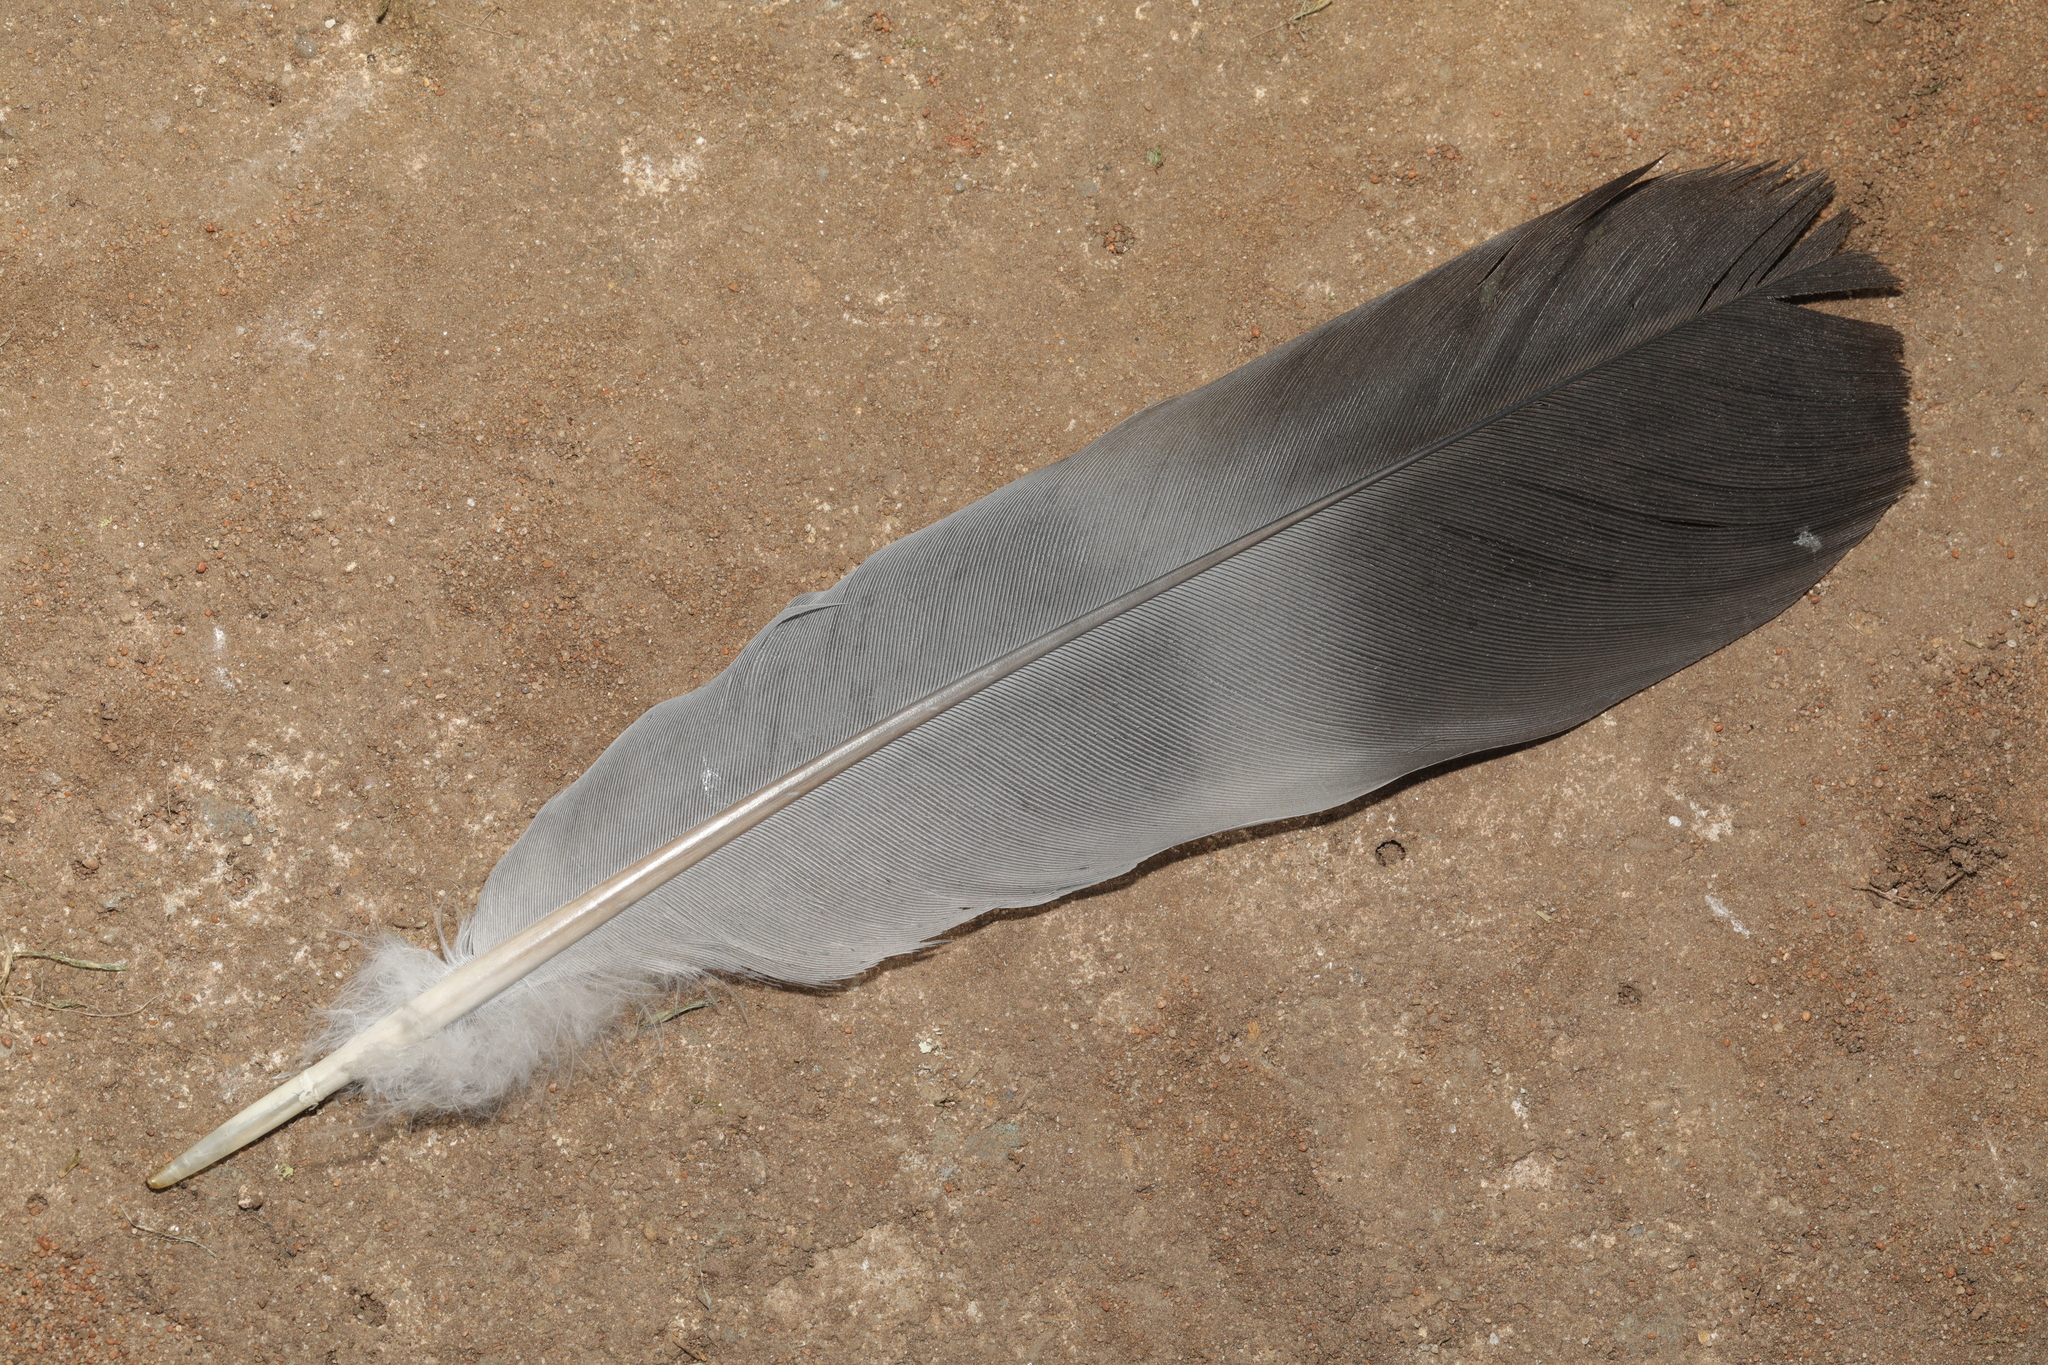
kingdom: Animalia
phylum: Chordata
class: Aves
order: Columbiformes
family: Columbidae
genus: Columba
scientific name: Columba palumbus
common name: Common wood pigeon
